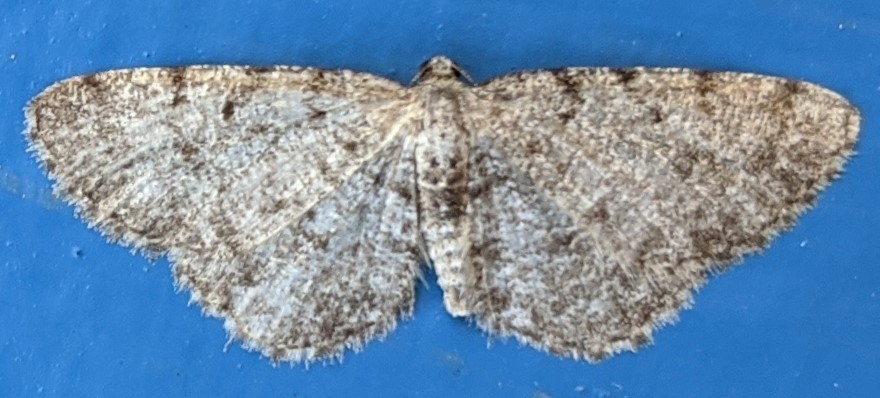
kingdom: Animalia
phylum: Arthropoda
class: Insecta
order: Lepidoptera
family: Geometridae
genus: Aethalura
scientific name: Aethalura intertexta
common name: Four-barred gray
